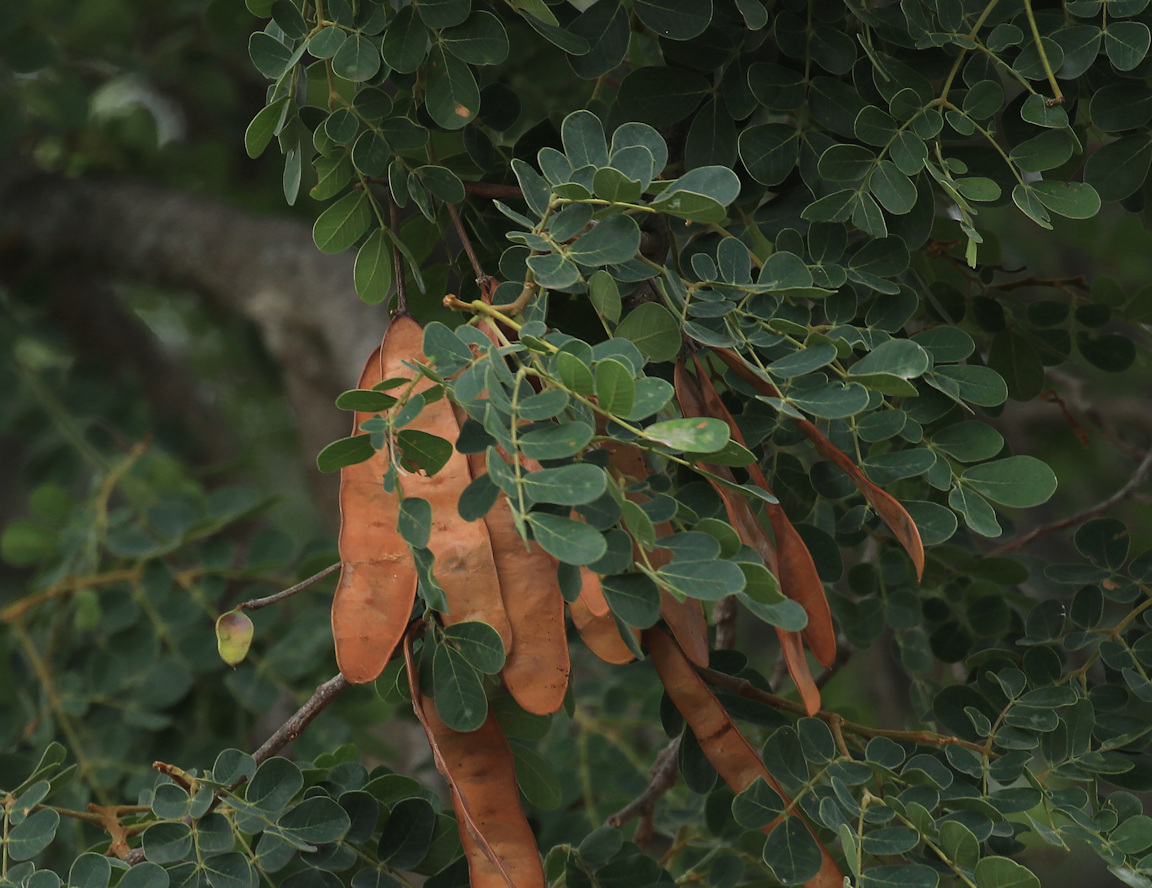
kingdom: Plantae
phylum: Tracheophyta
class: Magnoliopsida
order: Fabales
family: Fabaceae
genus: Albizia
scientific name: Albizia versicolor
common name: Poisonpod
